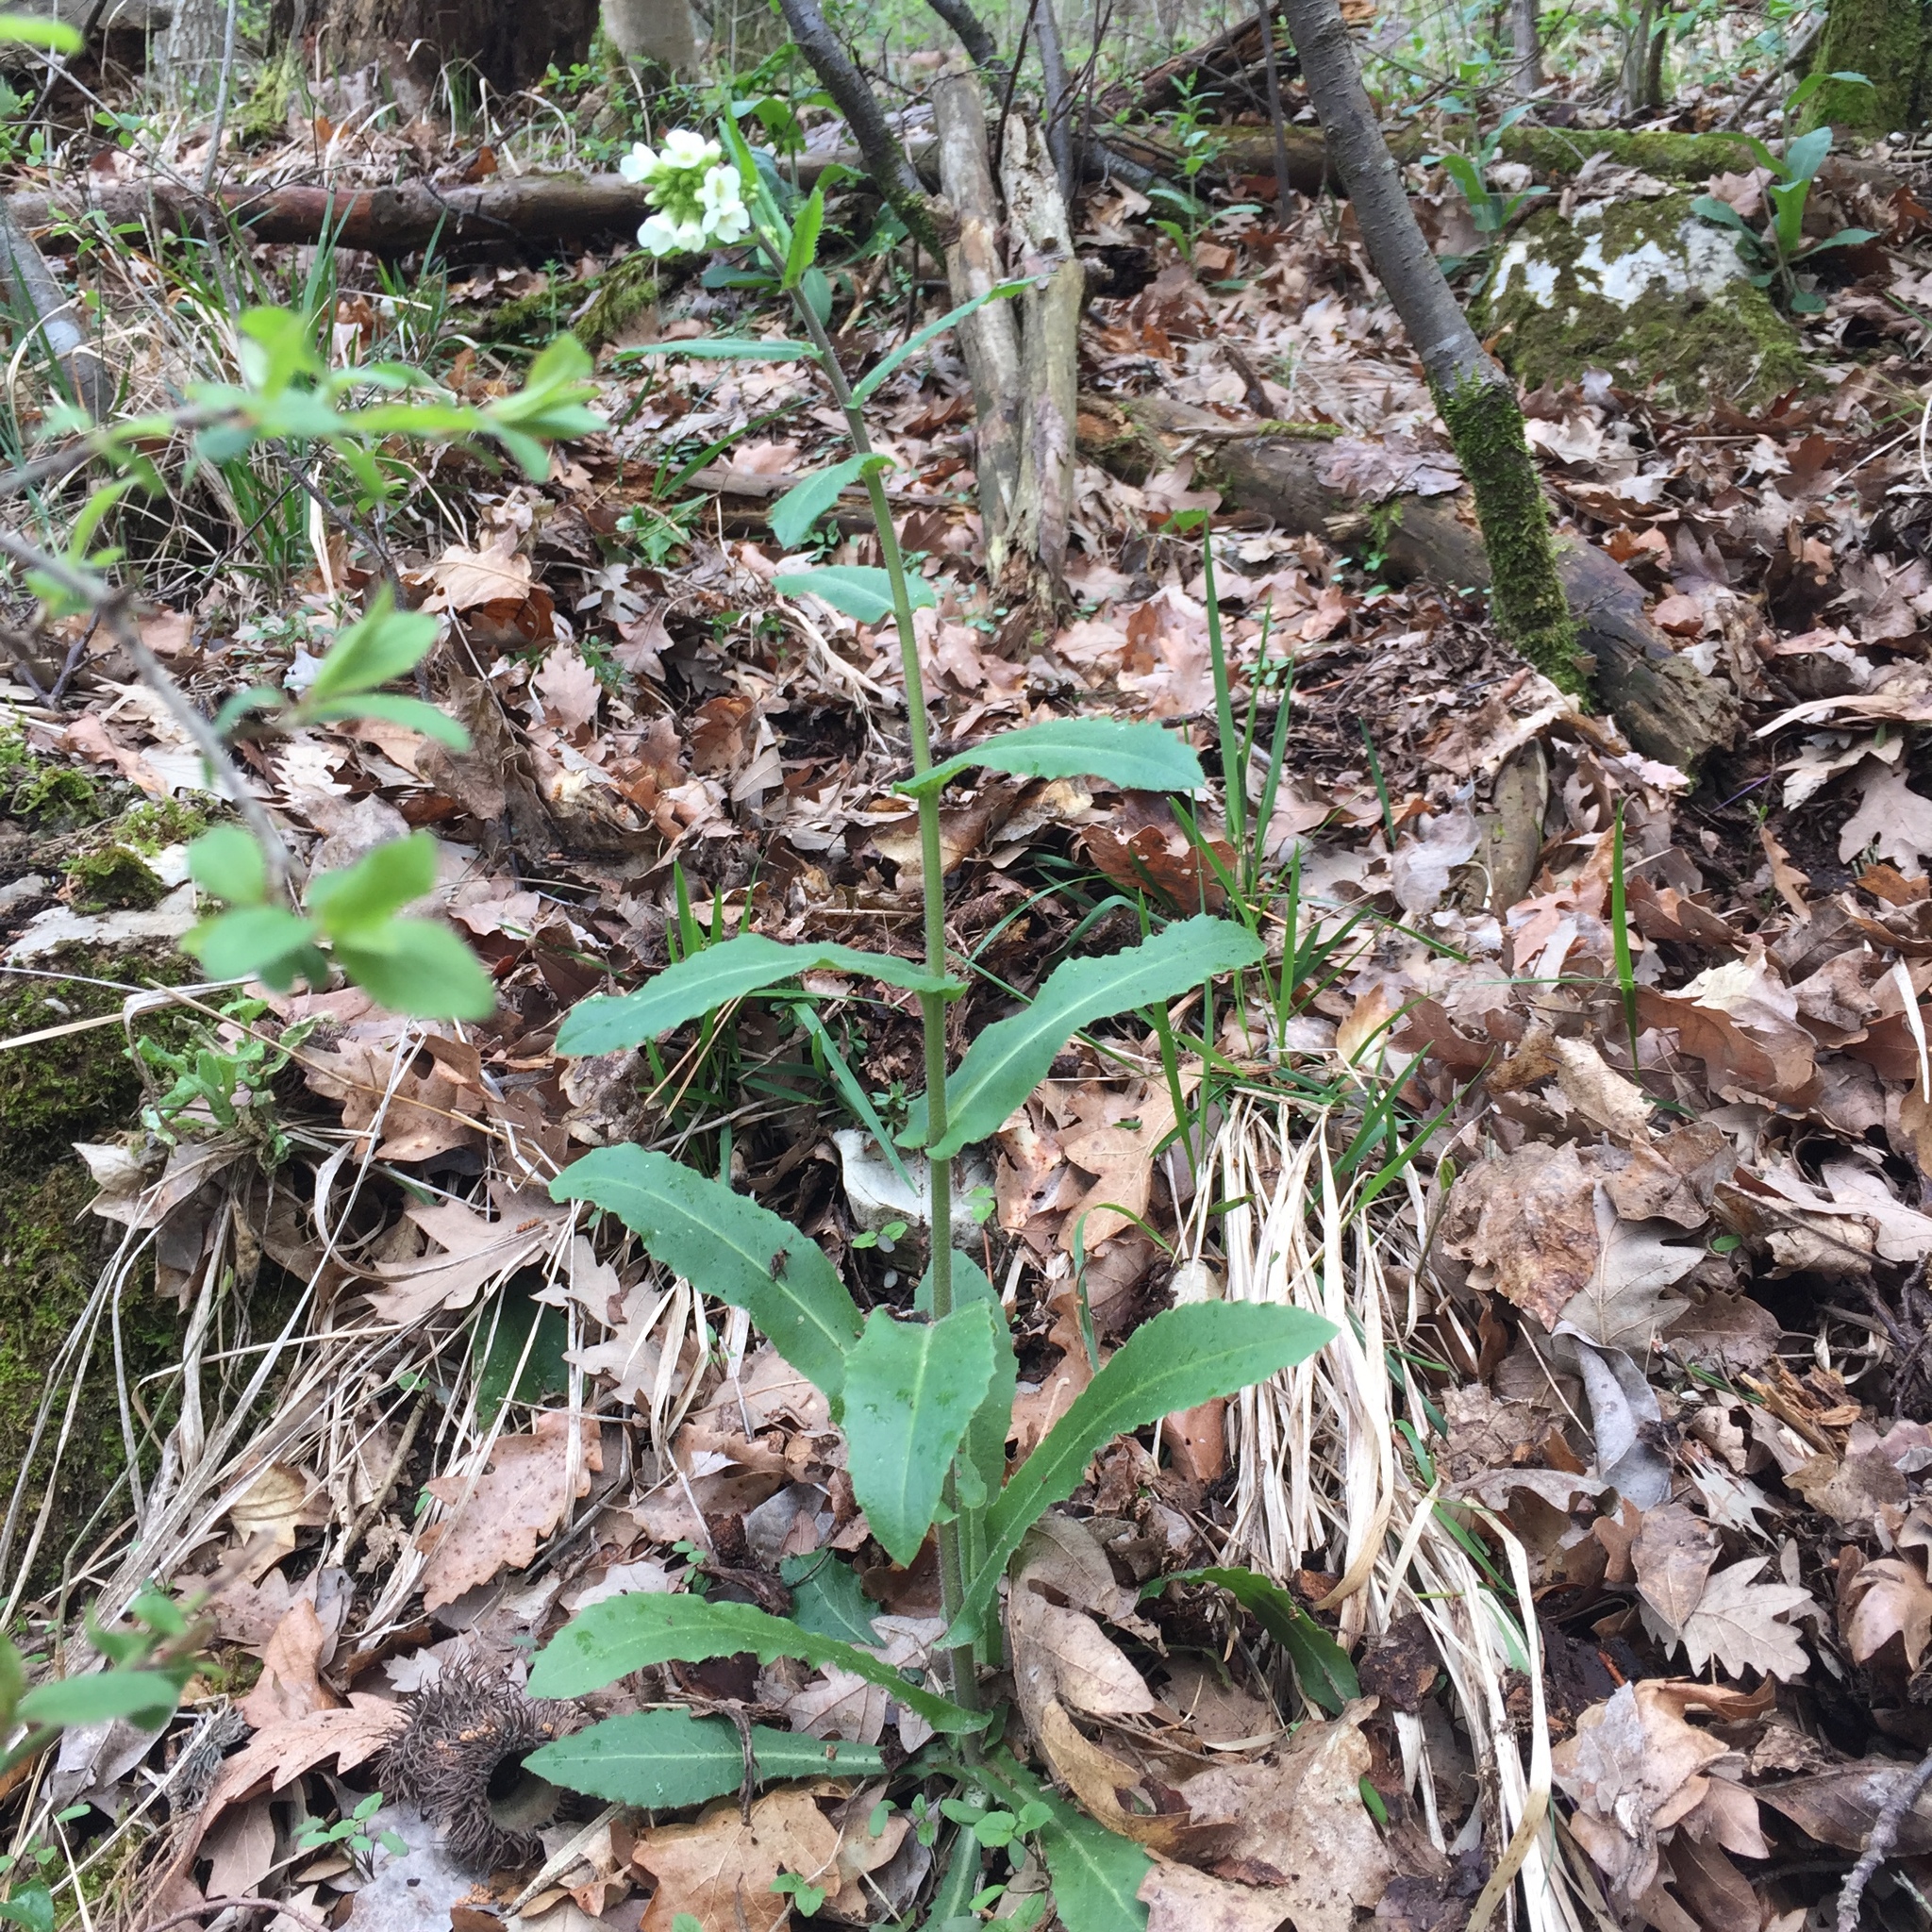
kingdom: Plantae
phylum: Tracheophyta
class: Magnoliopsida
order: Brassicales
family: Brassicaceae
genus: Pseudoturritis
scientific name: Pseudoturritis turrita
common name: Tower cress
